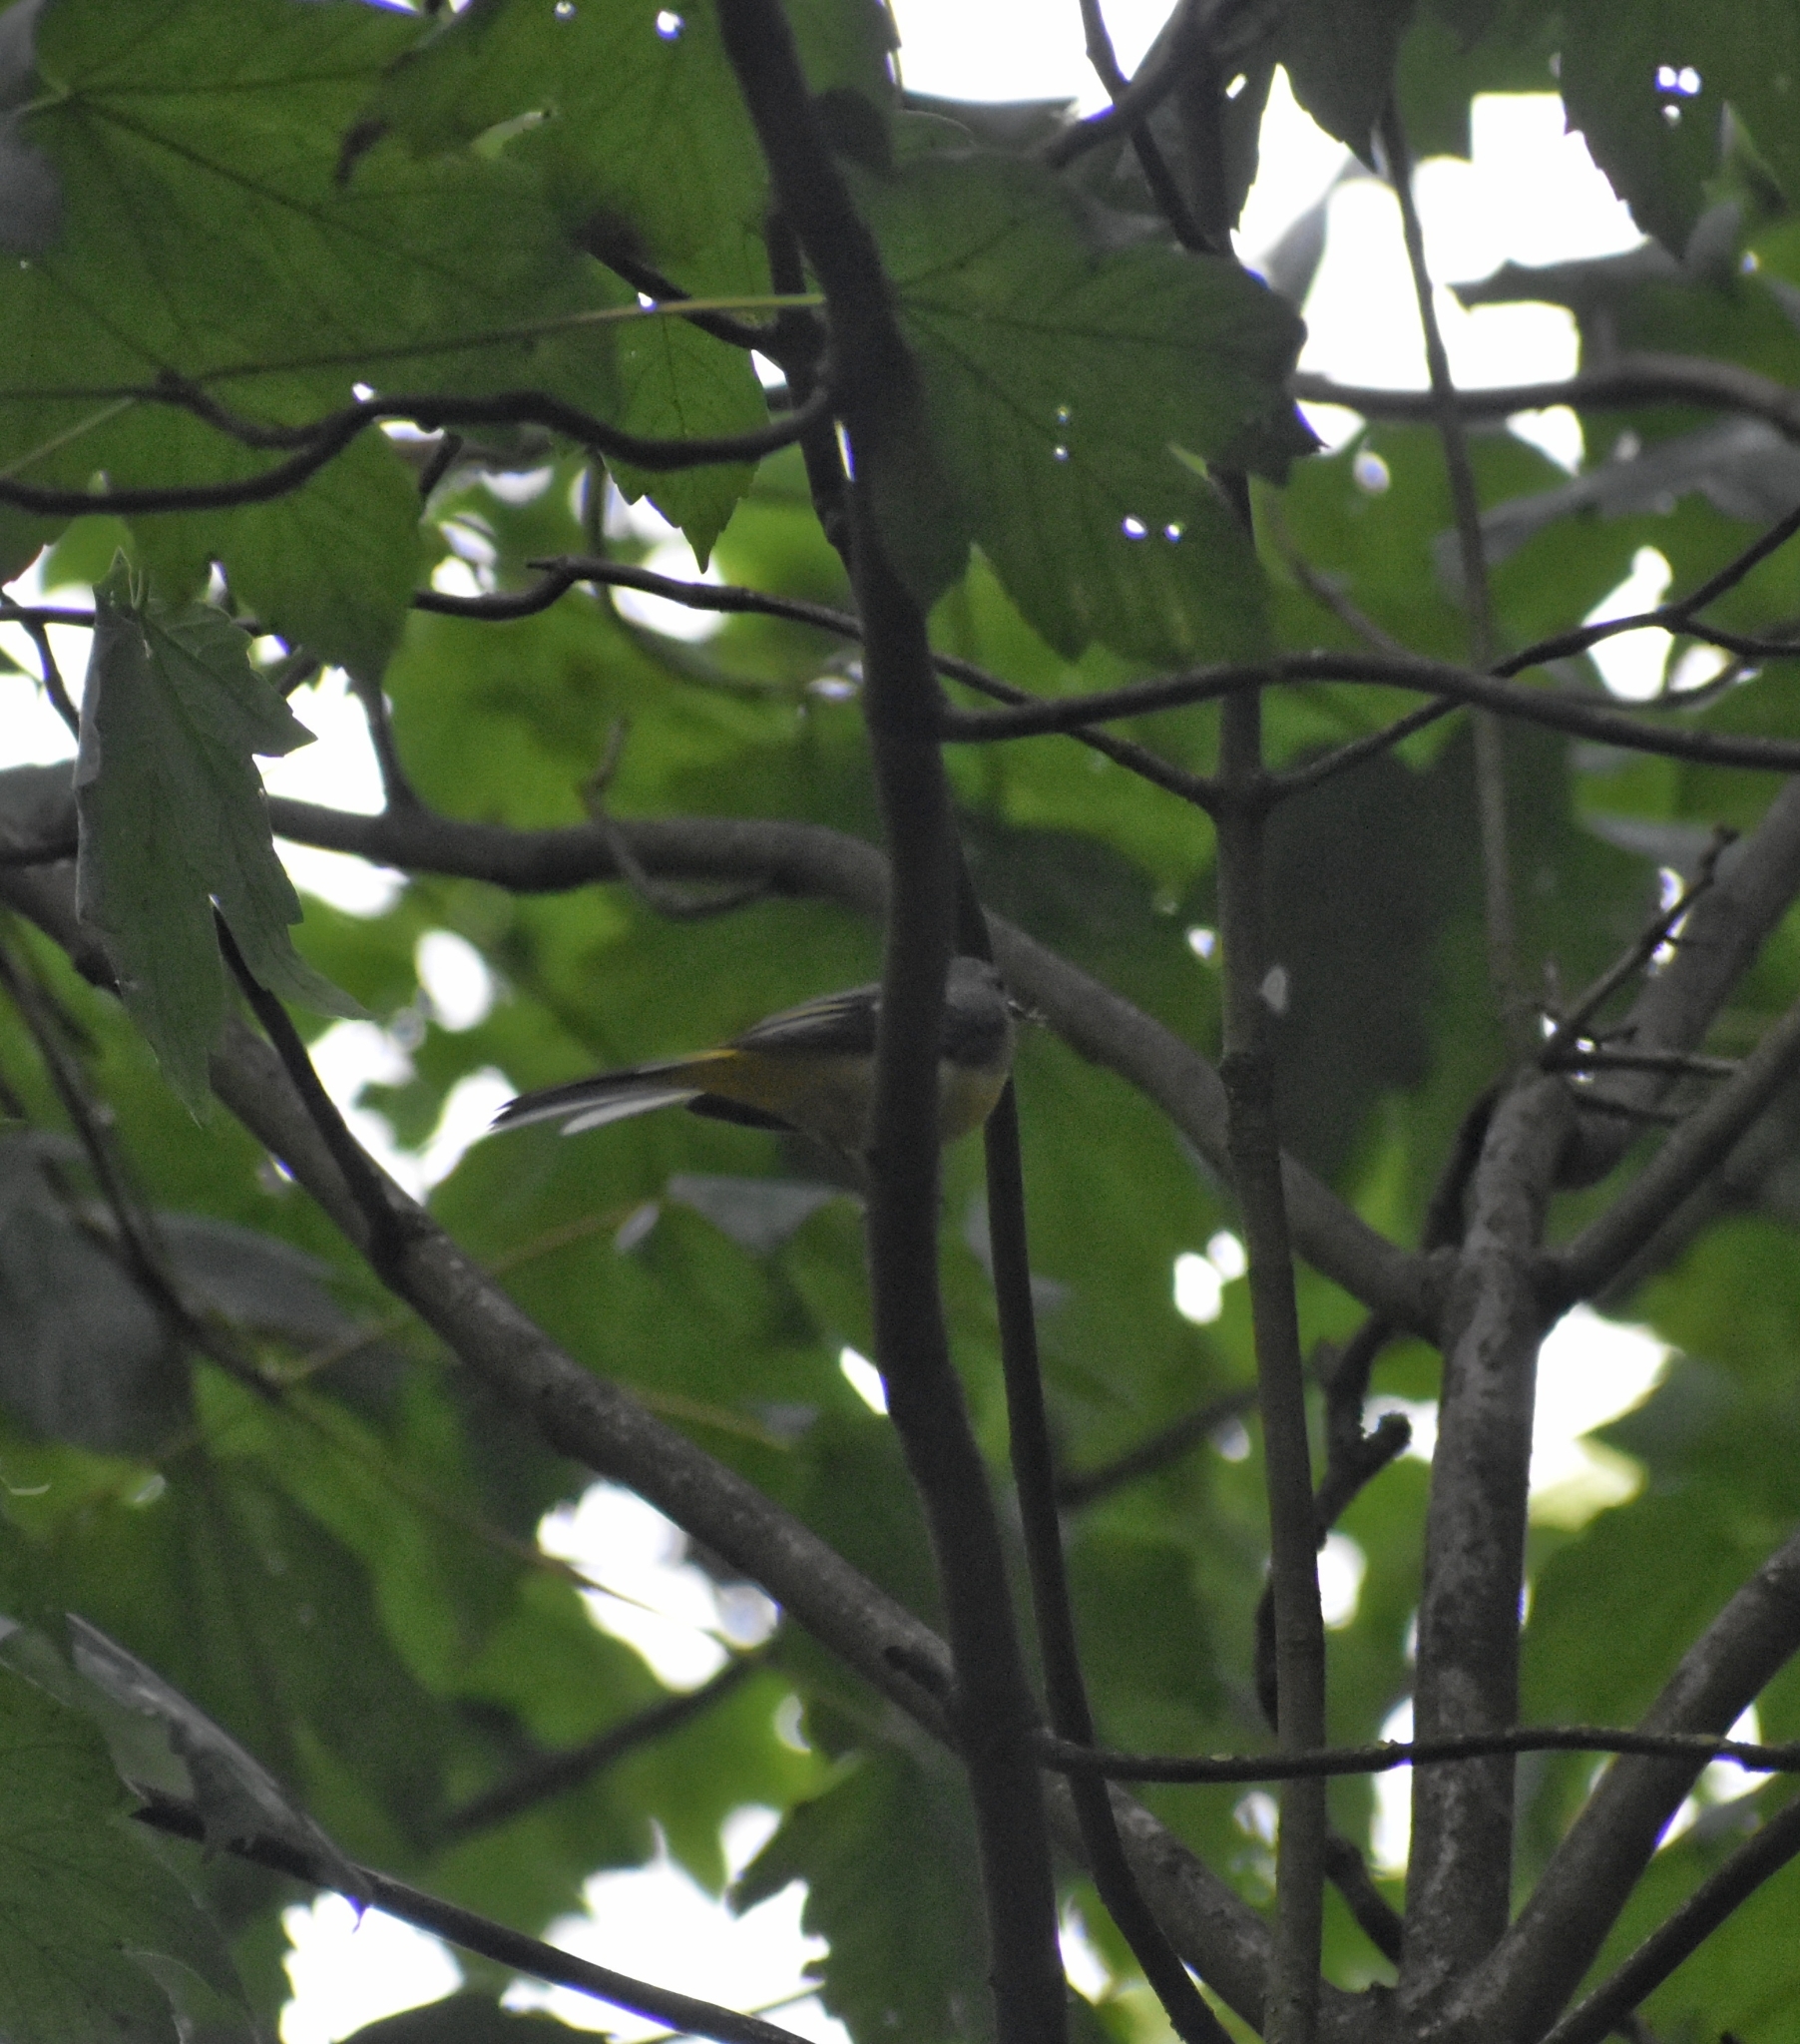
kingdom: Animalia
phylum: Chordata
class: Aves
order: Passeriformes
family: Motacillidae
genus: Motacilla
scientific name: Motacilla cinerea
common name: Grey wagtail
